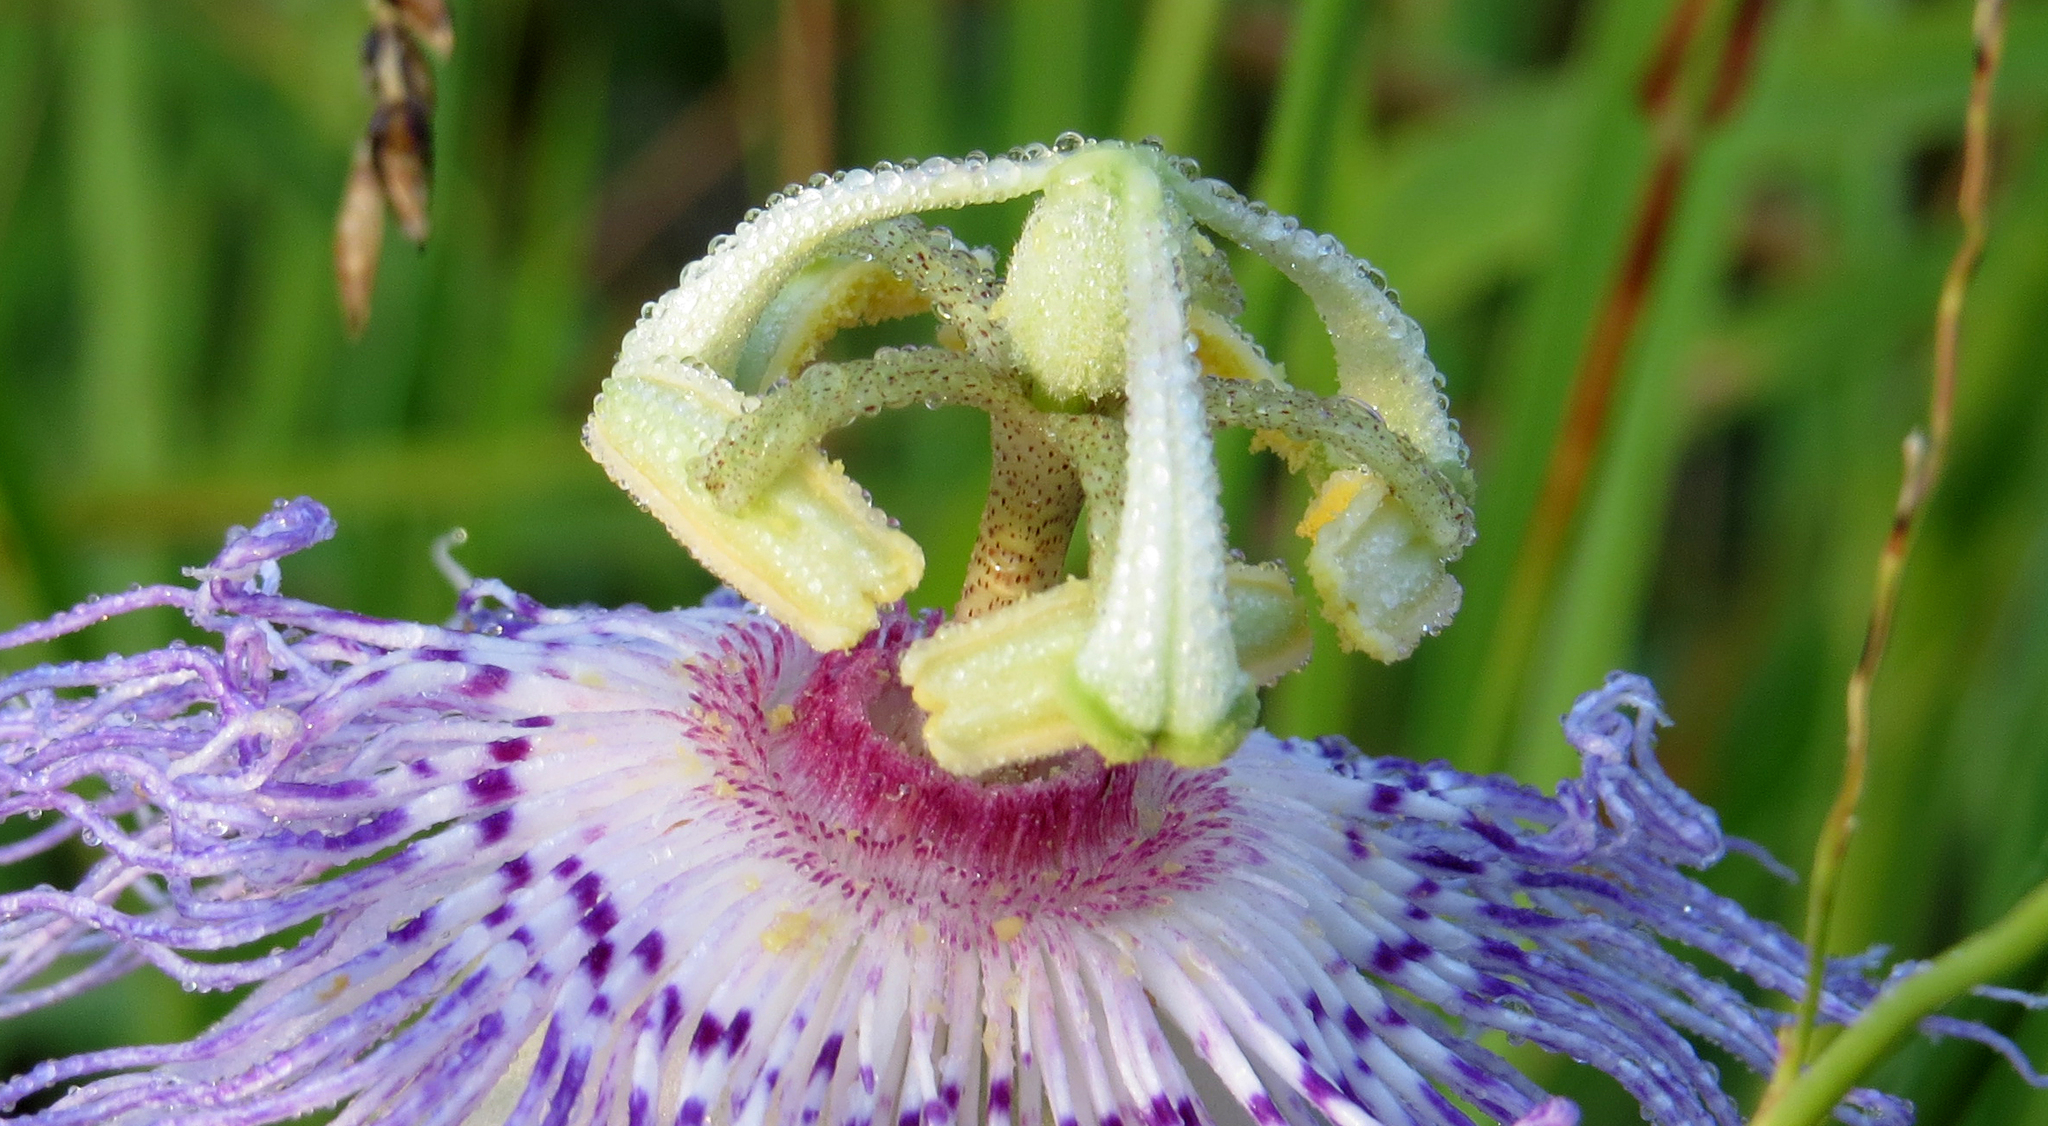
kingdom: Plantae
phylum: Tracheophyta
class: Magnoliopsida
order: Malpighiales
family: Passifloraceae
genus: Passiflora
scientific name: Passiflora incarnata
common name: Apricot-vine
